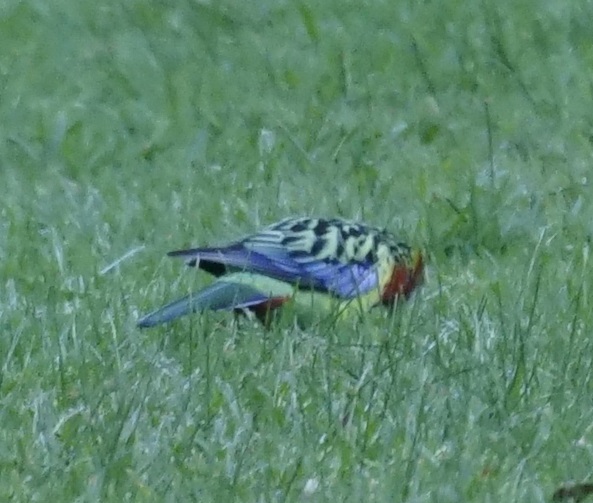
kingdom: Animalia
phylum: Chordata
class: Aves
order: Psittaciformes
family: Psittacidae
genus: Platycercus
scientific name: Platycercus eximius
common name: Eastern rosella
